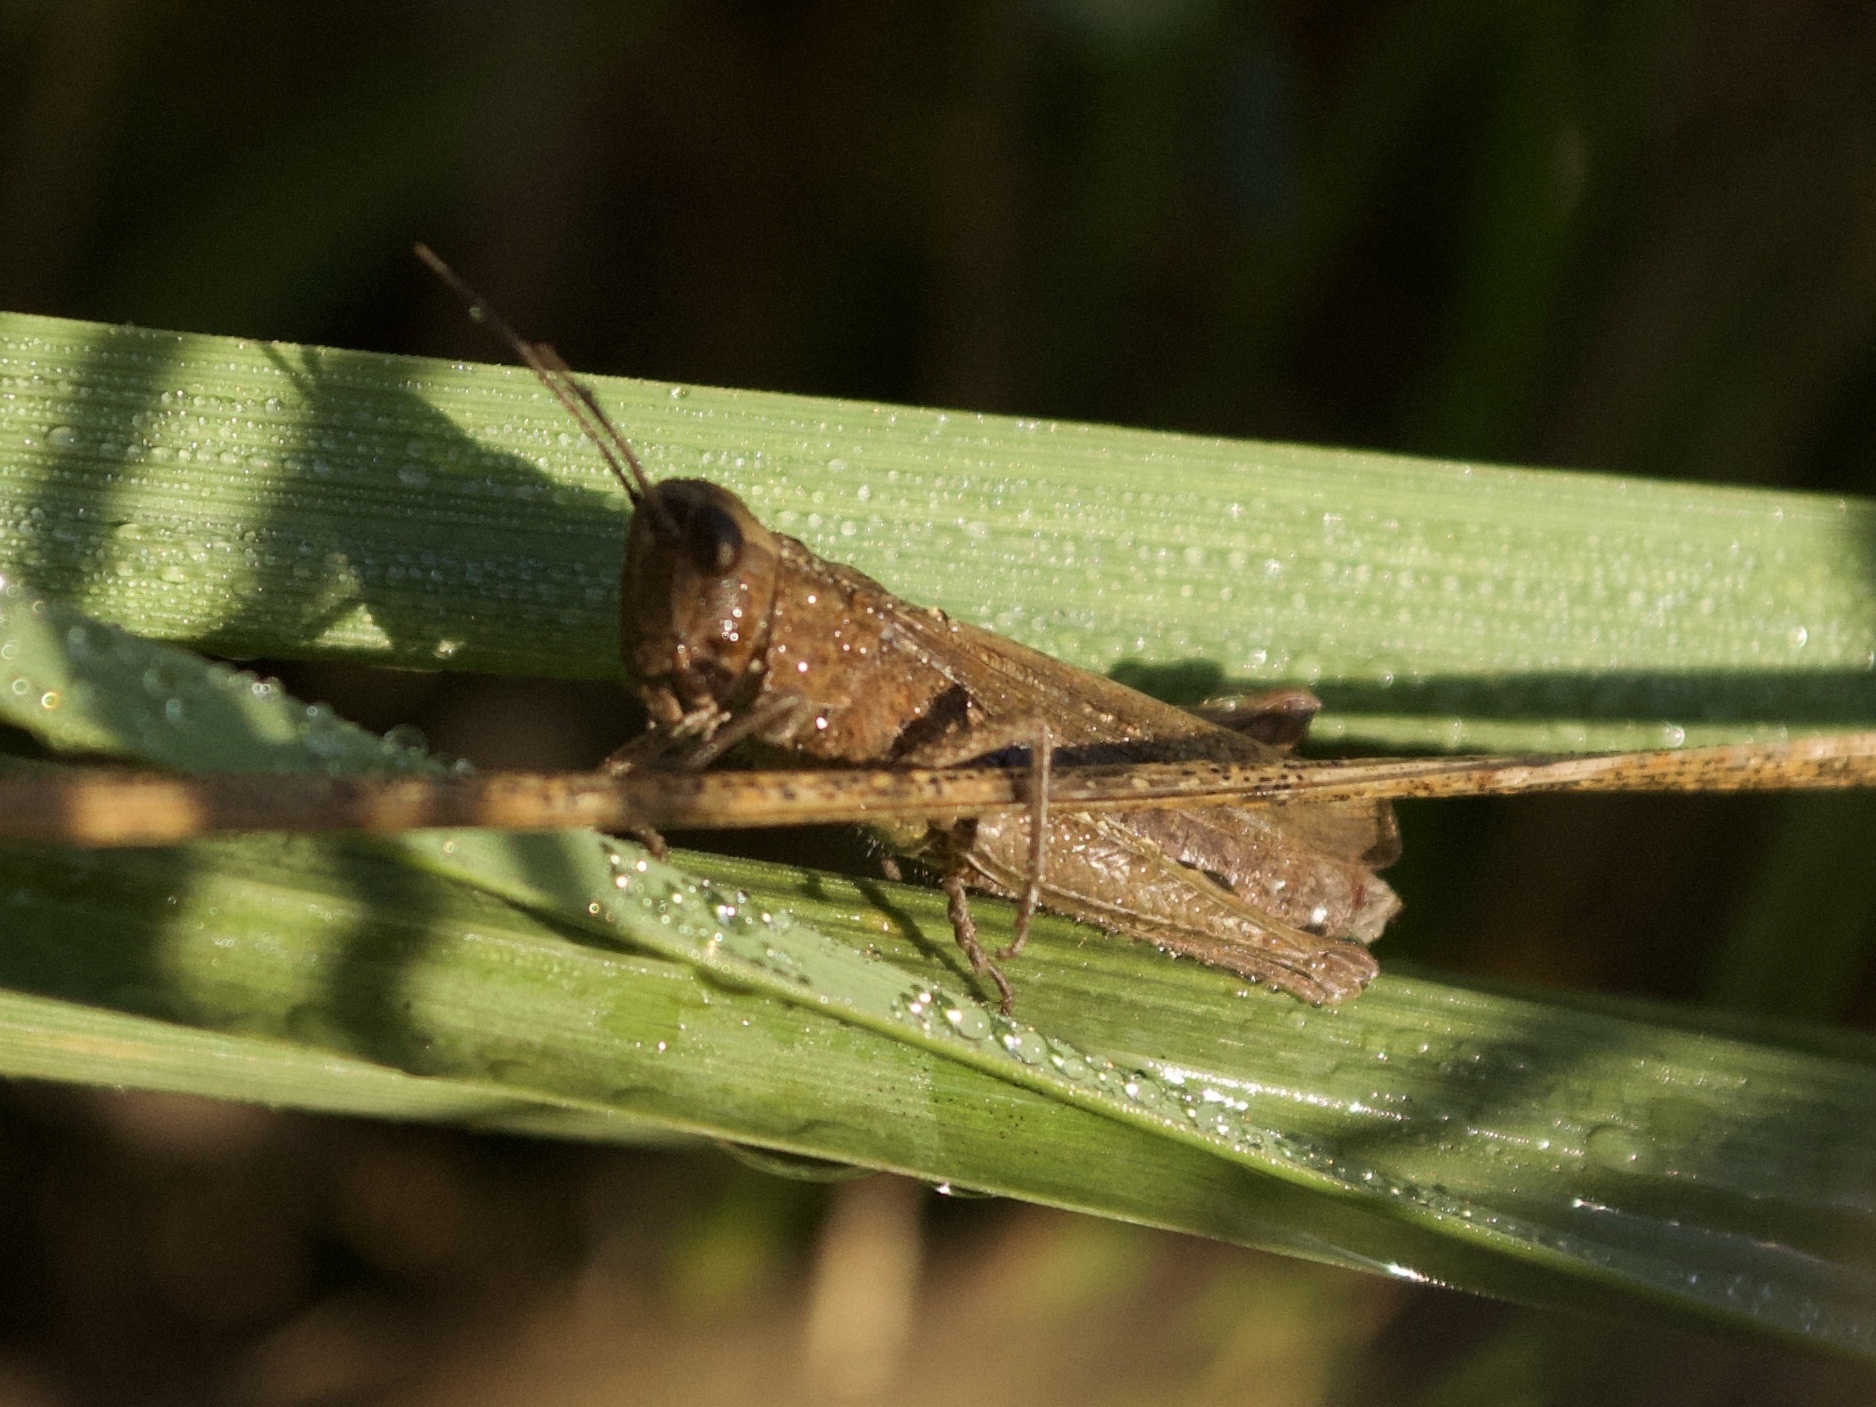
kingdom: Animalia
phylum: Arthropoda
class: Insecta
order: Orthoptera
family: Acrididae
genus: Chorthippus
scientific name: Chorthippus dorsatus
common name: Steppe grasshopper
